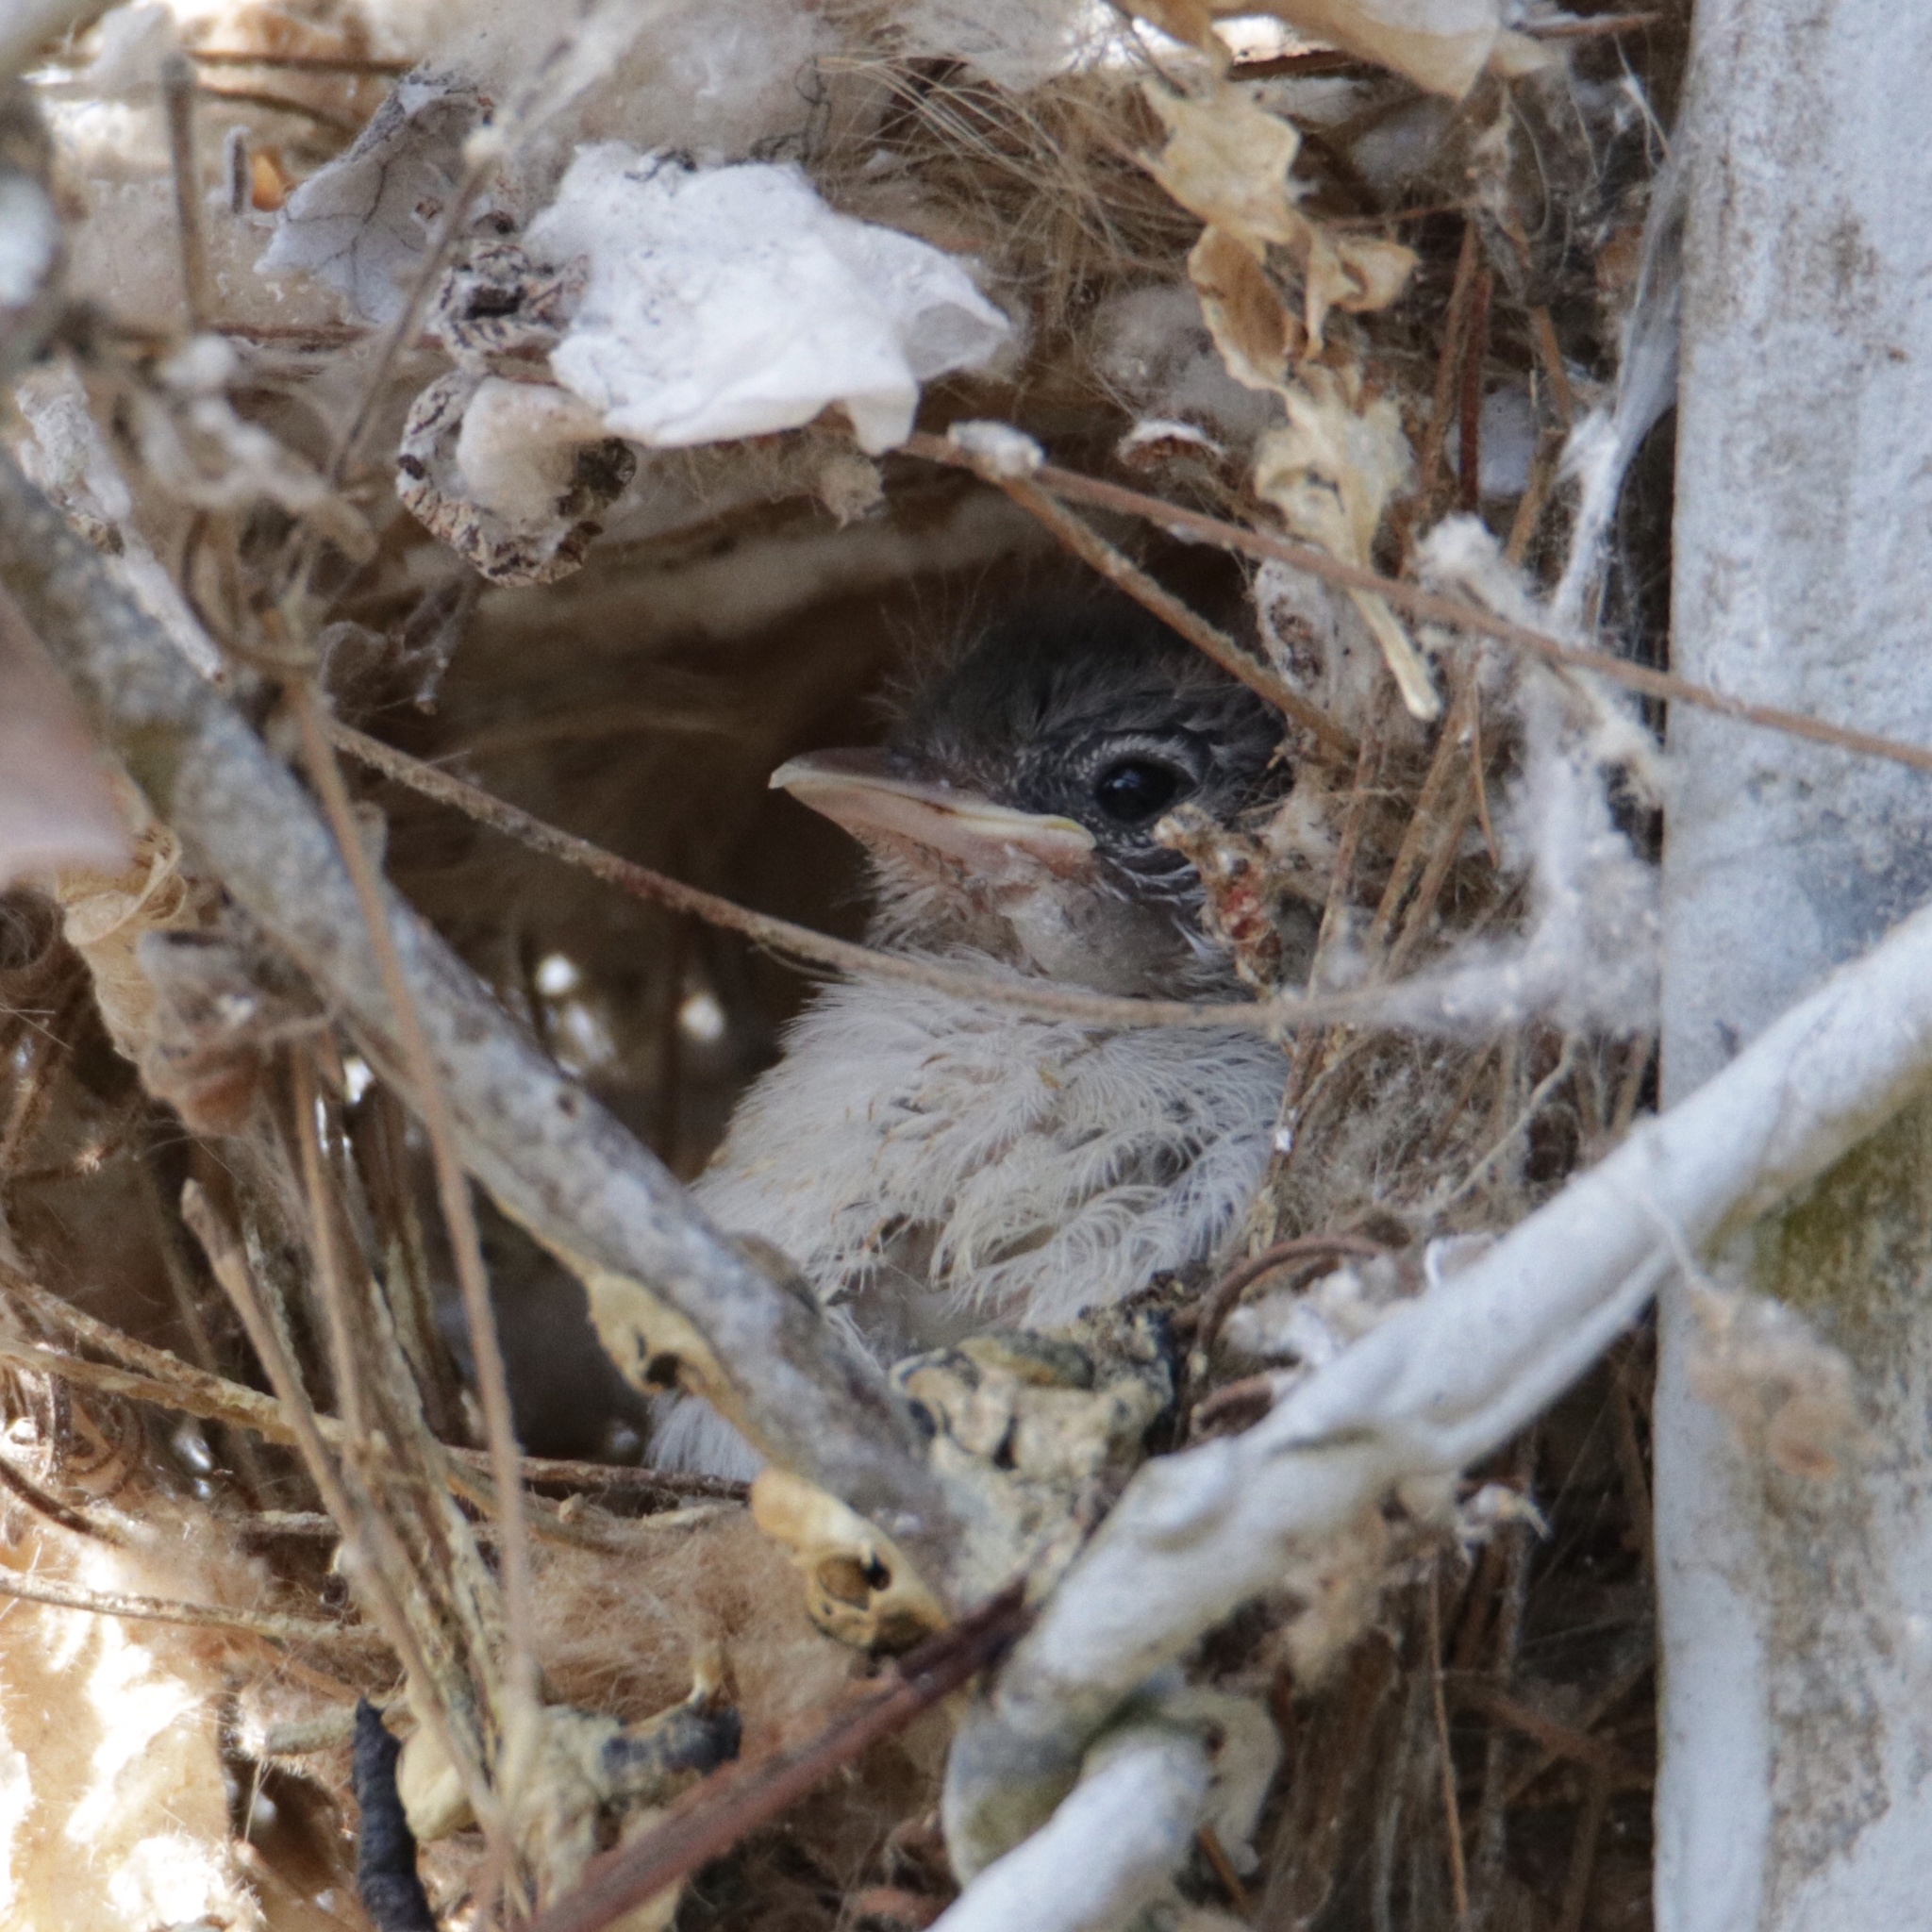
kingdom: Animalia
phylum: Chordata
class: Aves
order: Passeriformes
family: Tyrannidae
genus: Camptostoma
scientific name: Camptostoma obsoletum
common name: Southern beardless-tyrannulet
